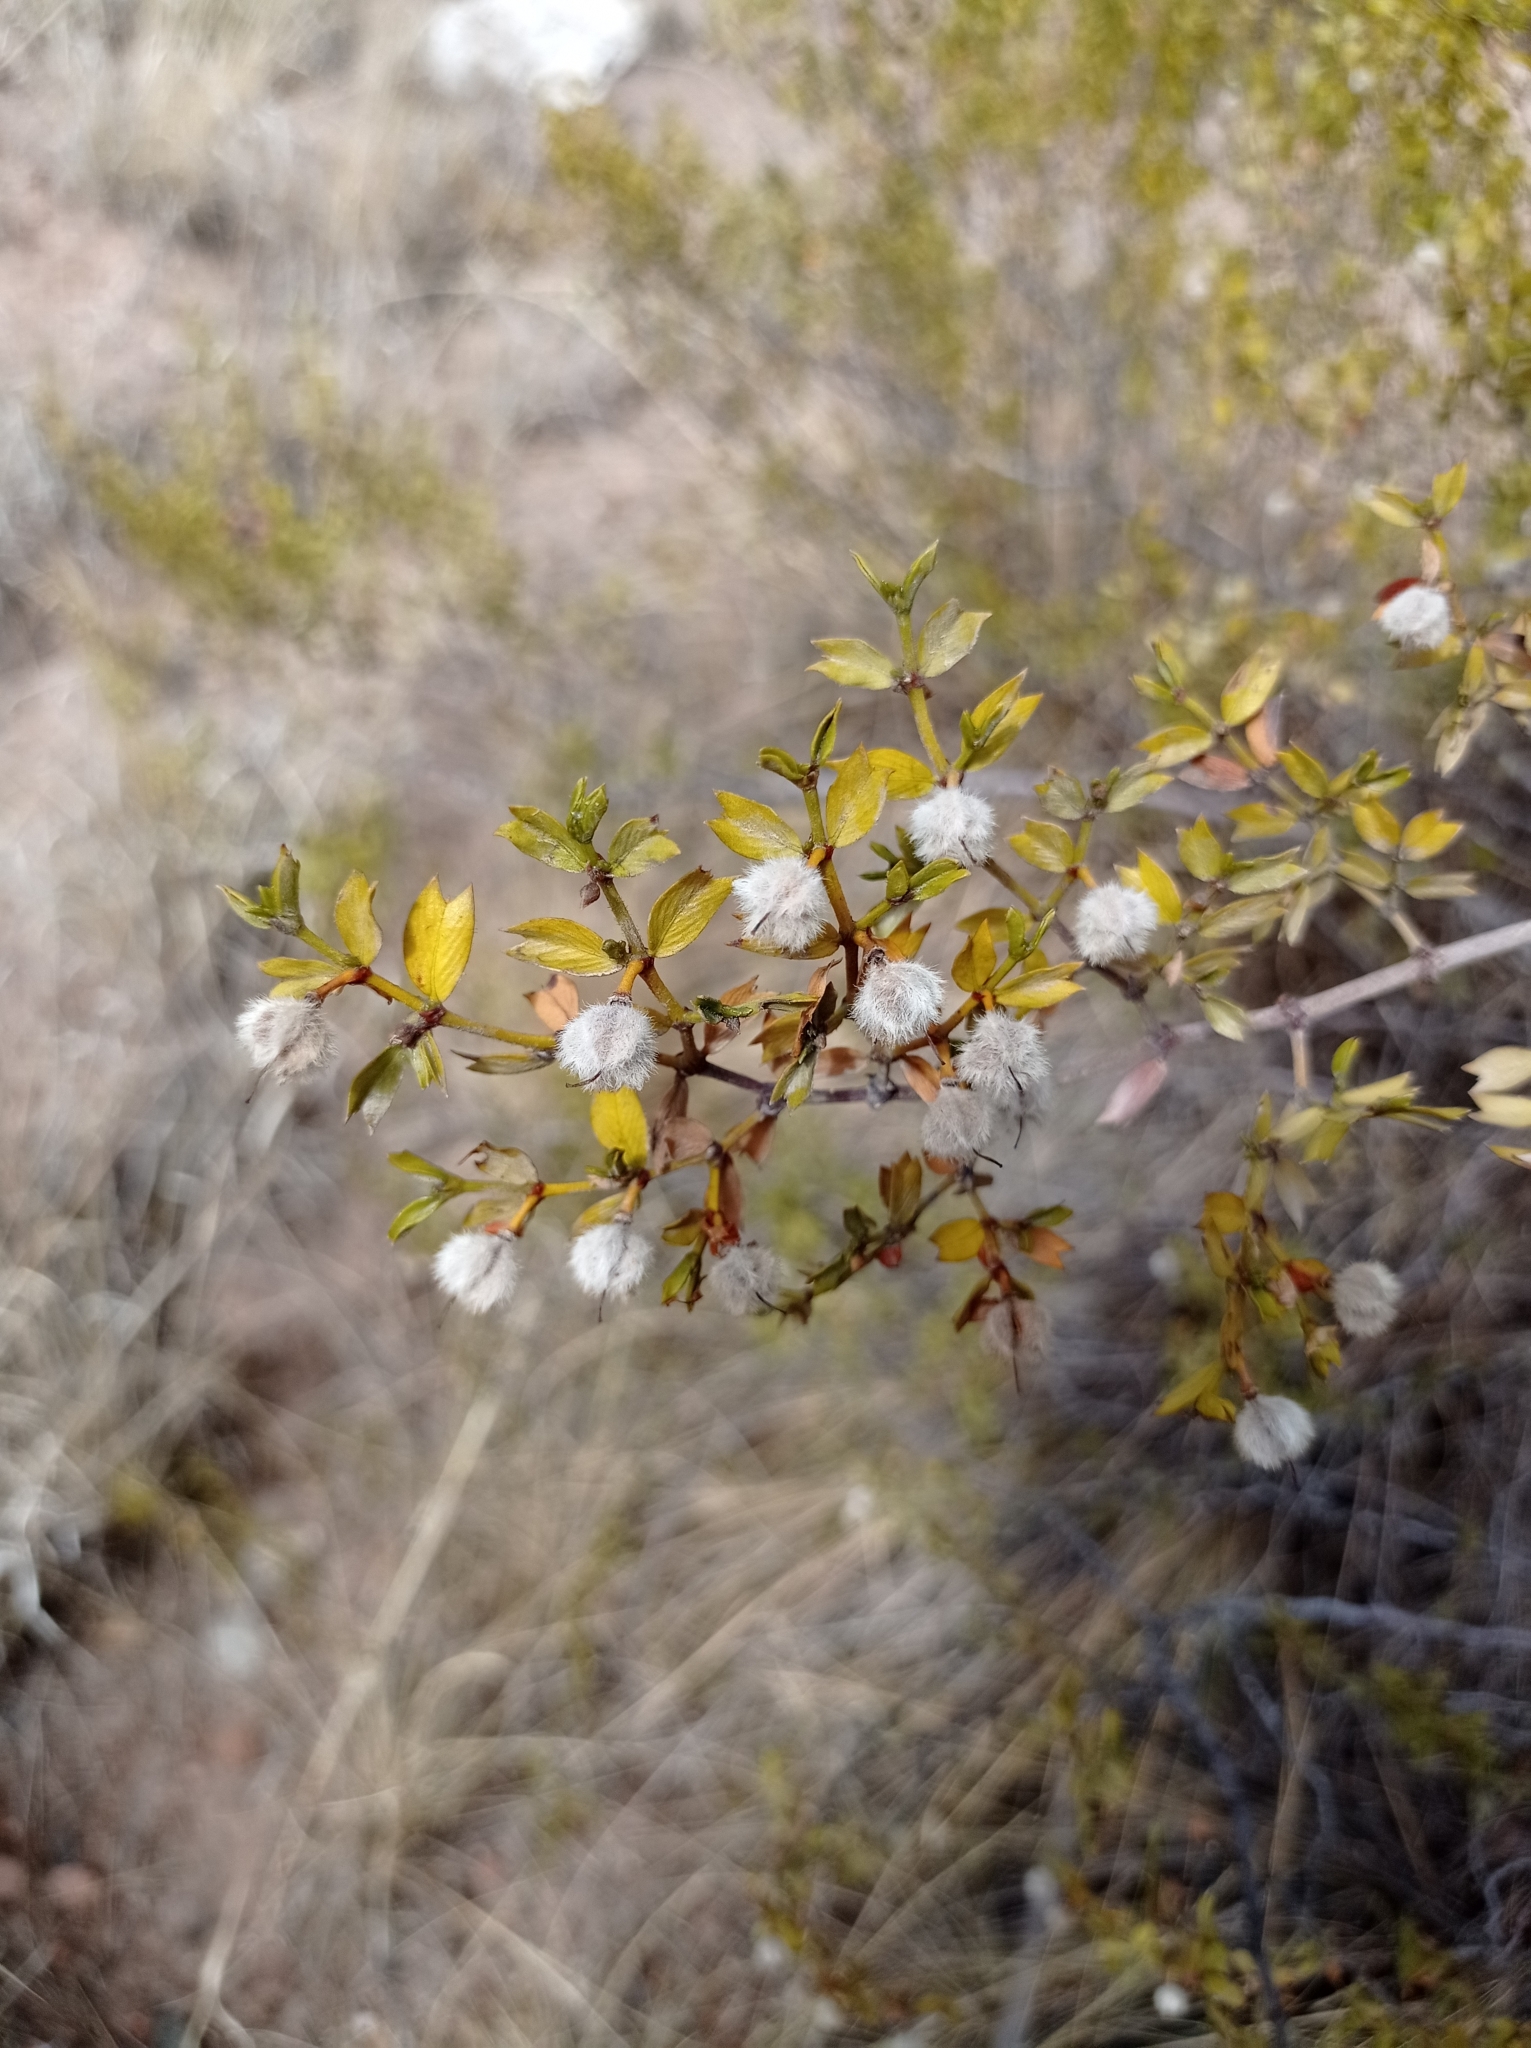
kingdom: Plantae
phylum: Tracheophyta
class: Magnoliopsida
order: Zygophyllales
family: Zygophyllaceae
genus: Larrea
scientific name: Larrea cuneifolia
